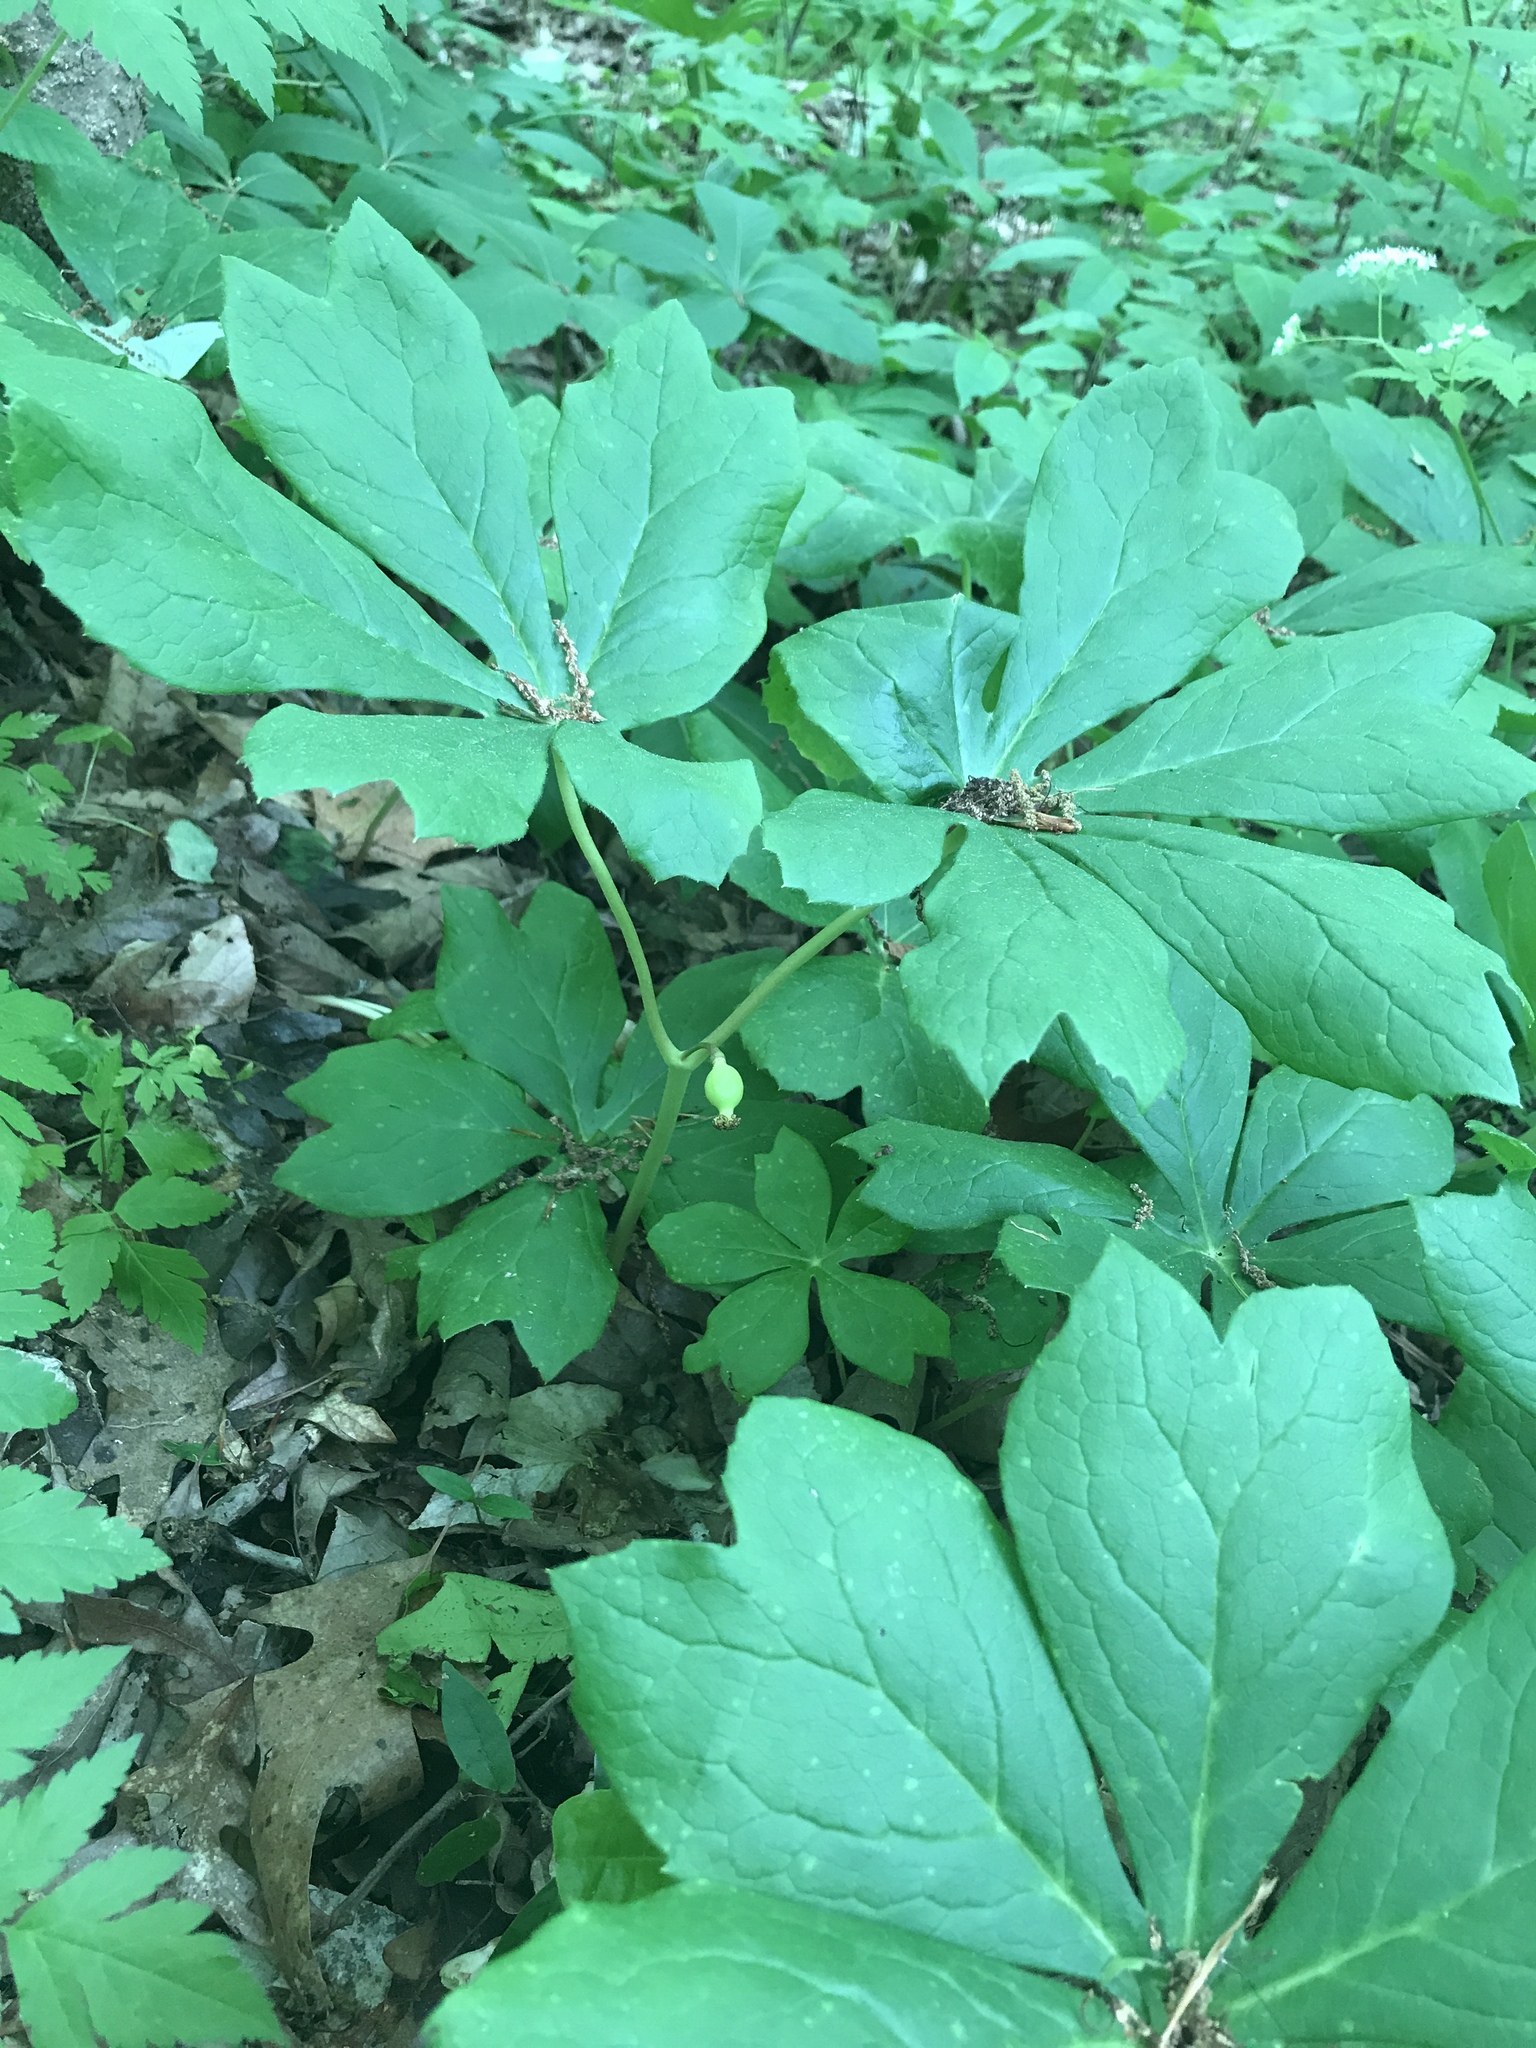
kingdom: Plantae
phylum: Tracheophyta
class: Magnoliopsida
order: Ranunculales
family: Berberidaceae
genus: Podophyllum
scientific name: Podophyllum peltatum
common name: Wild mandrake
